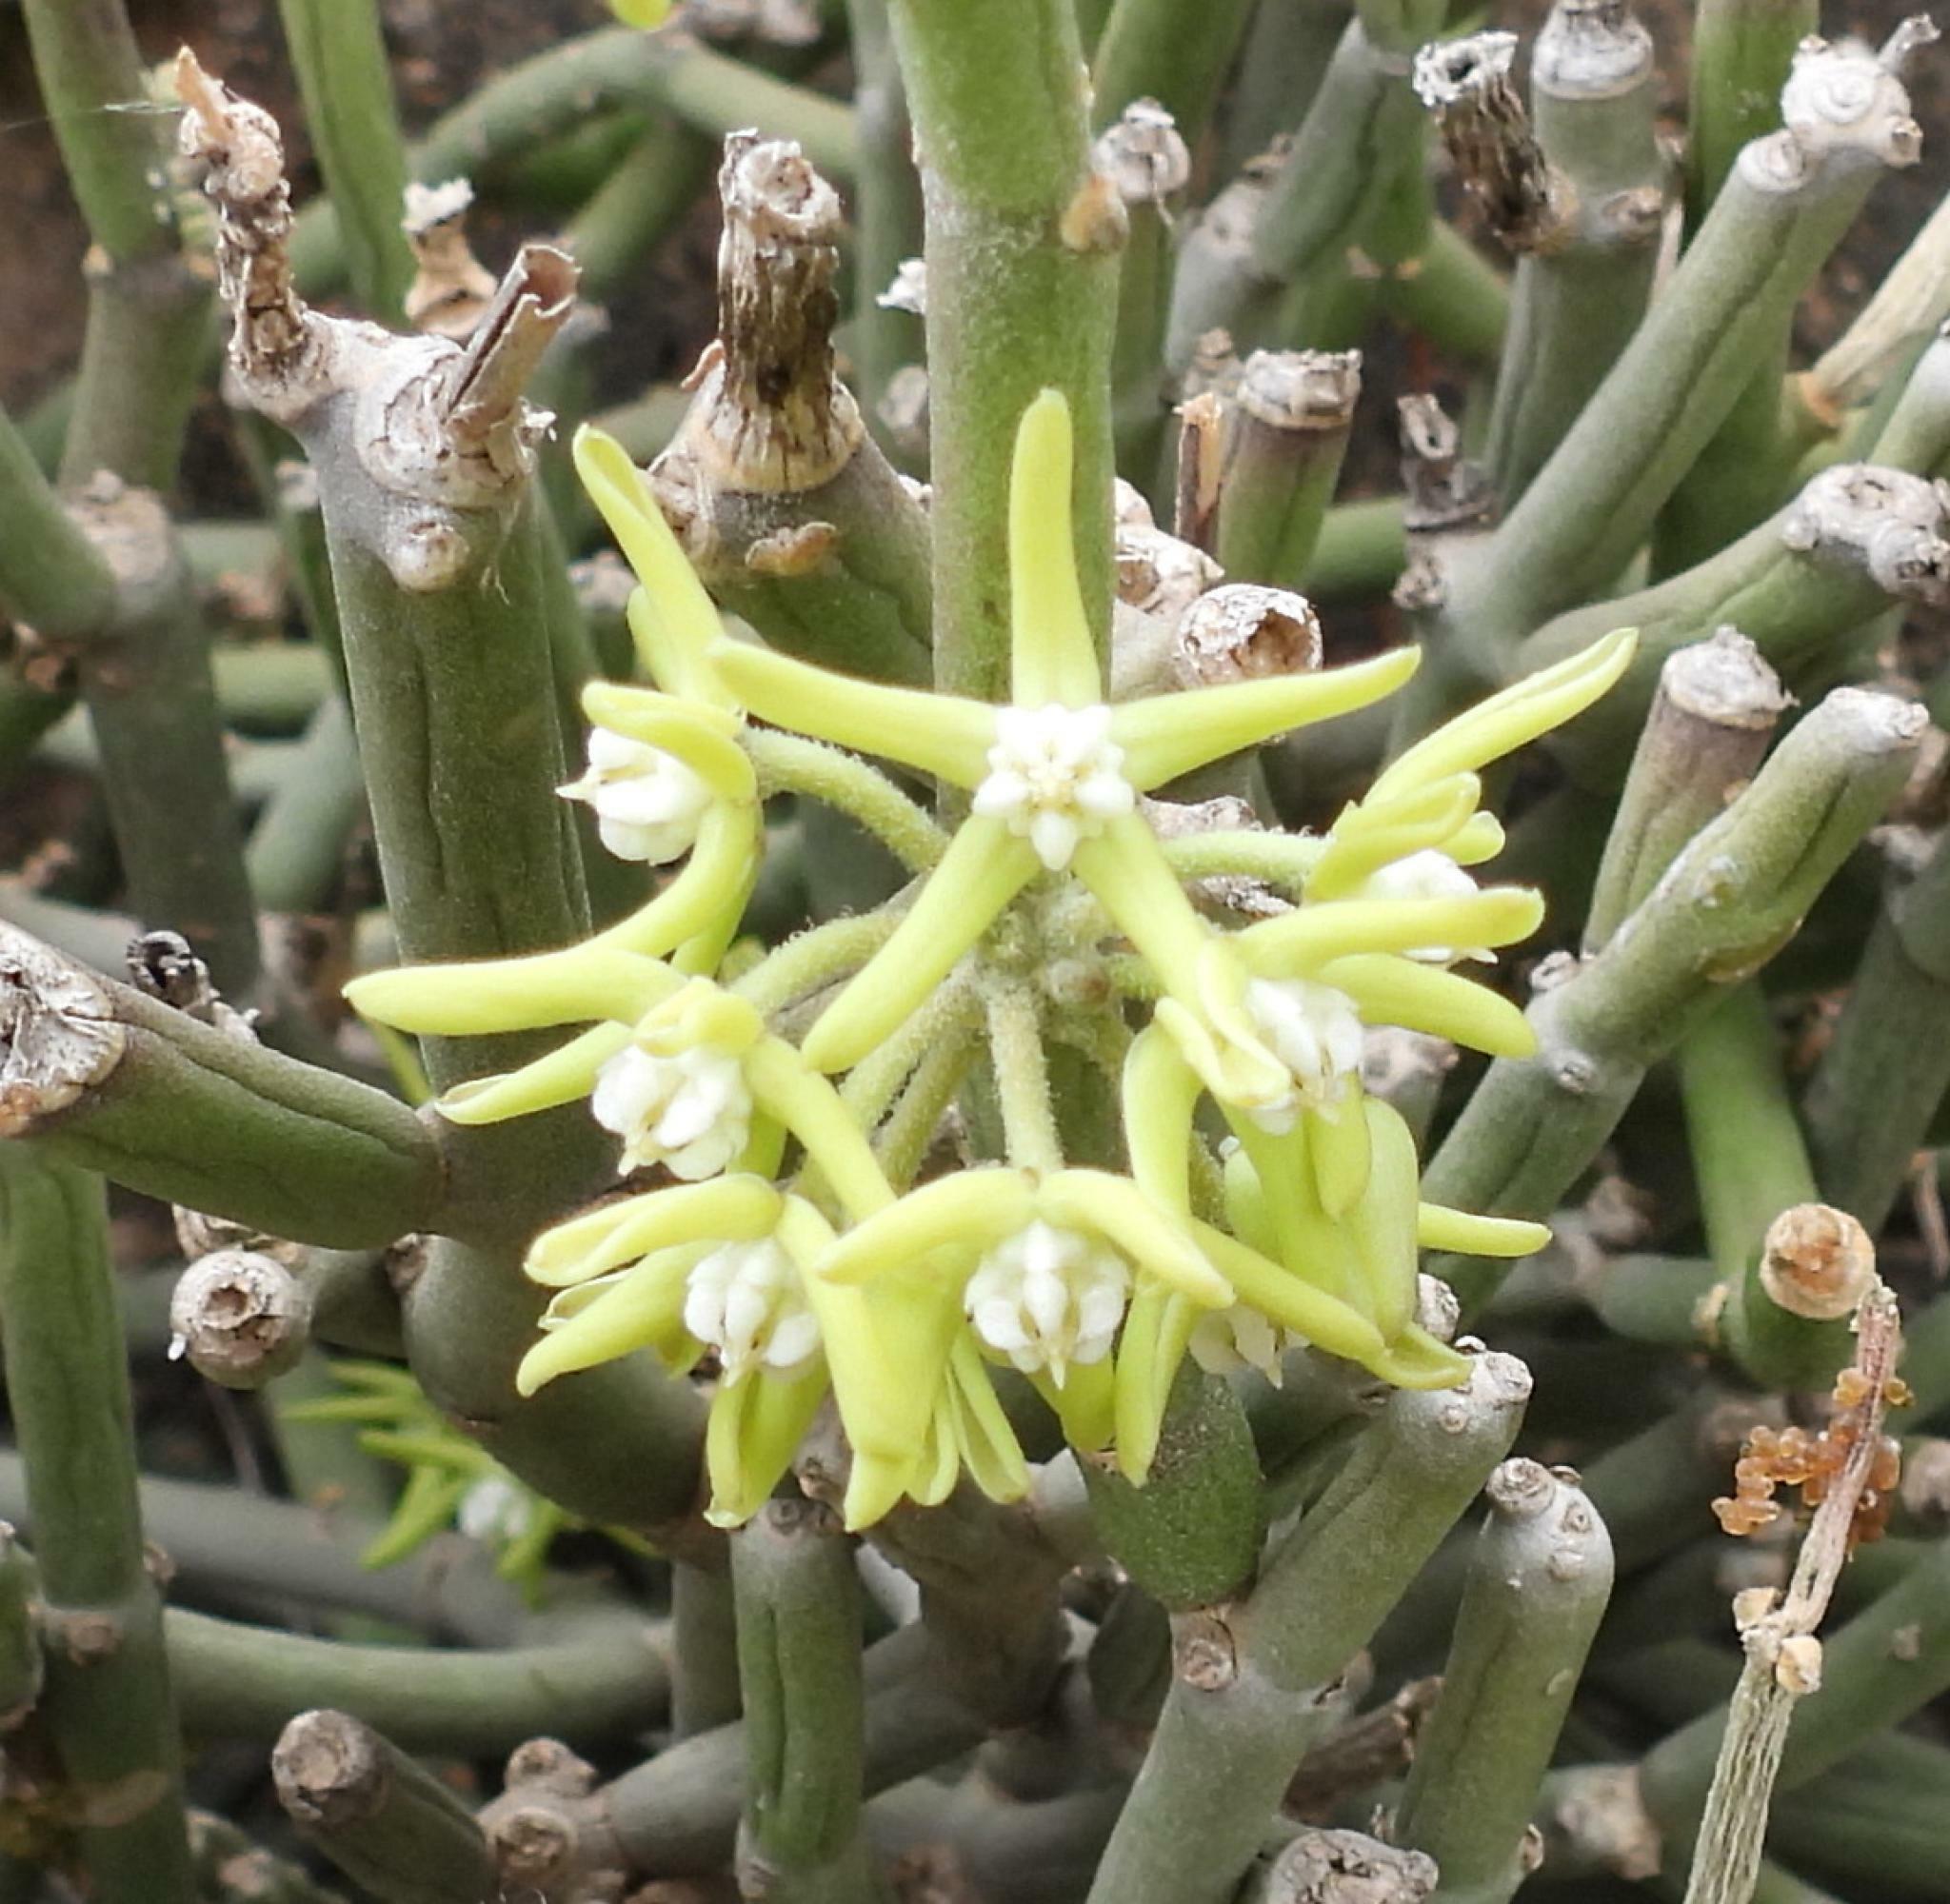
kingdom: Plantae
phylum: Tracheophyta
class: Magnoliopsida
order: Gentianales
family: Apocynaceae
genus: Cynanchum
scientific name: Cynanchum viminale
